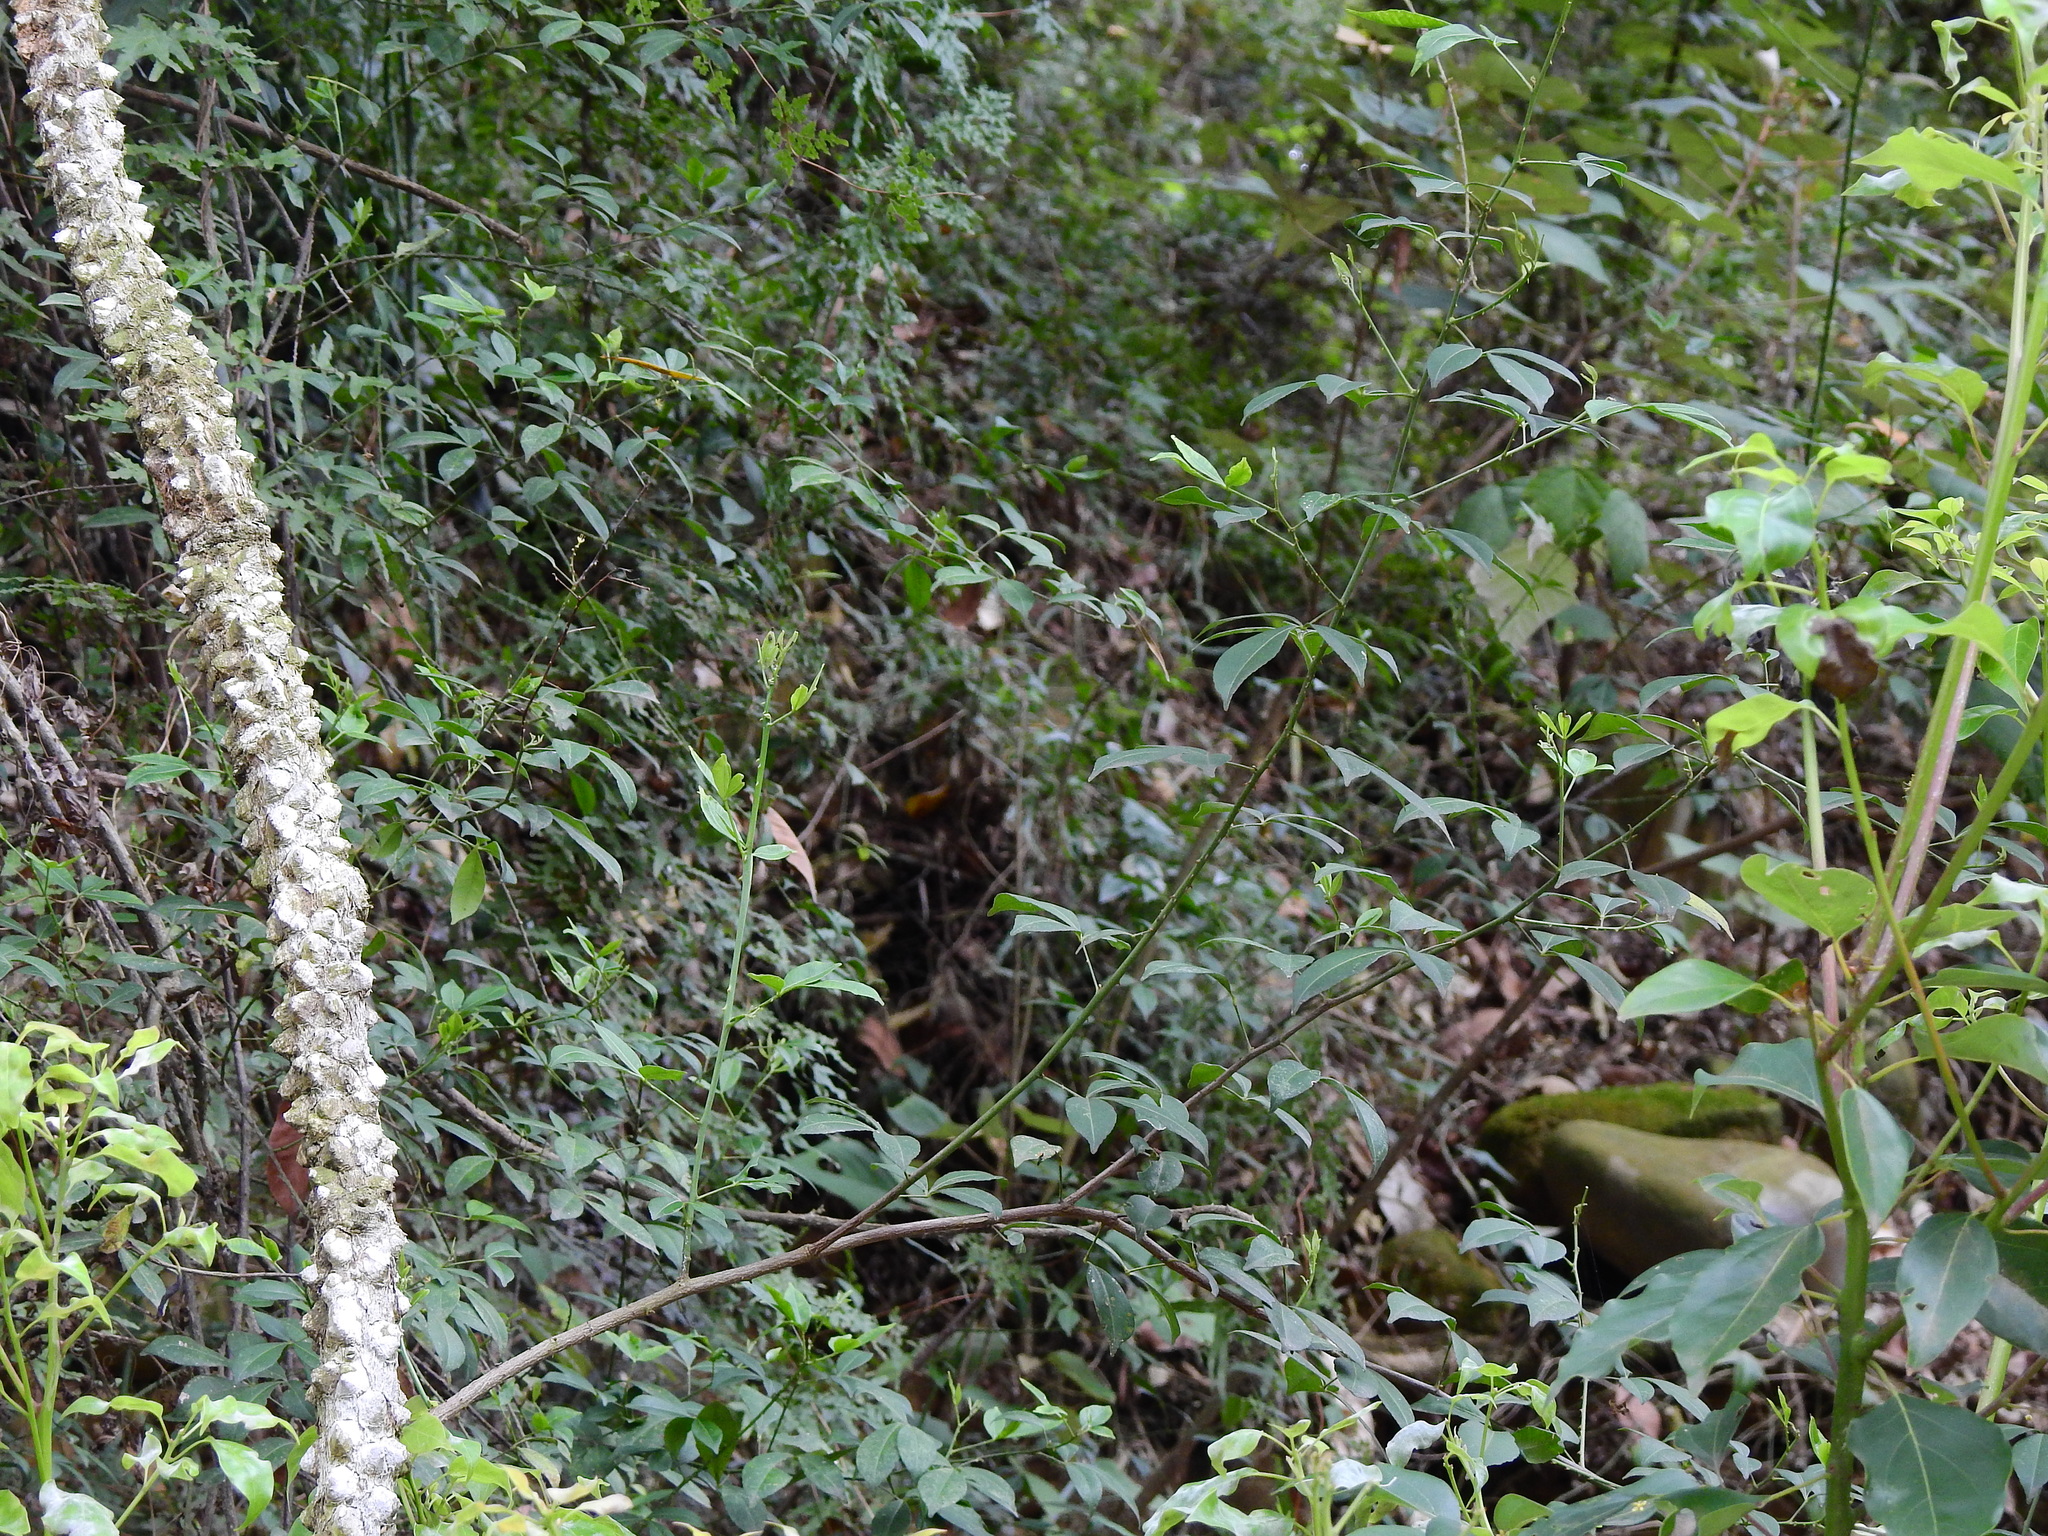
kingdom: Plantae
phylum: Tracheophyta
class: Magnoliopsida
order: Sapindales
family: Rutaceae
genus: Zanthoxylum
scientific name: Zanthoxylum asiaticum
